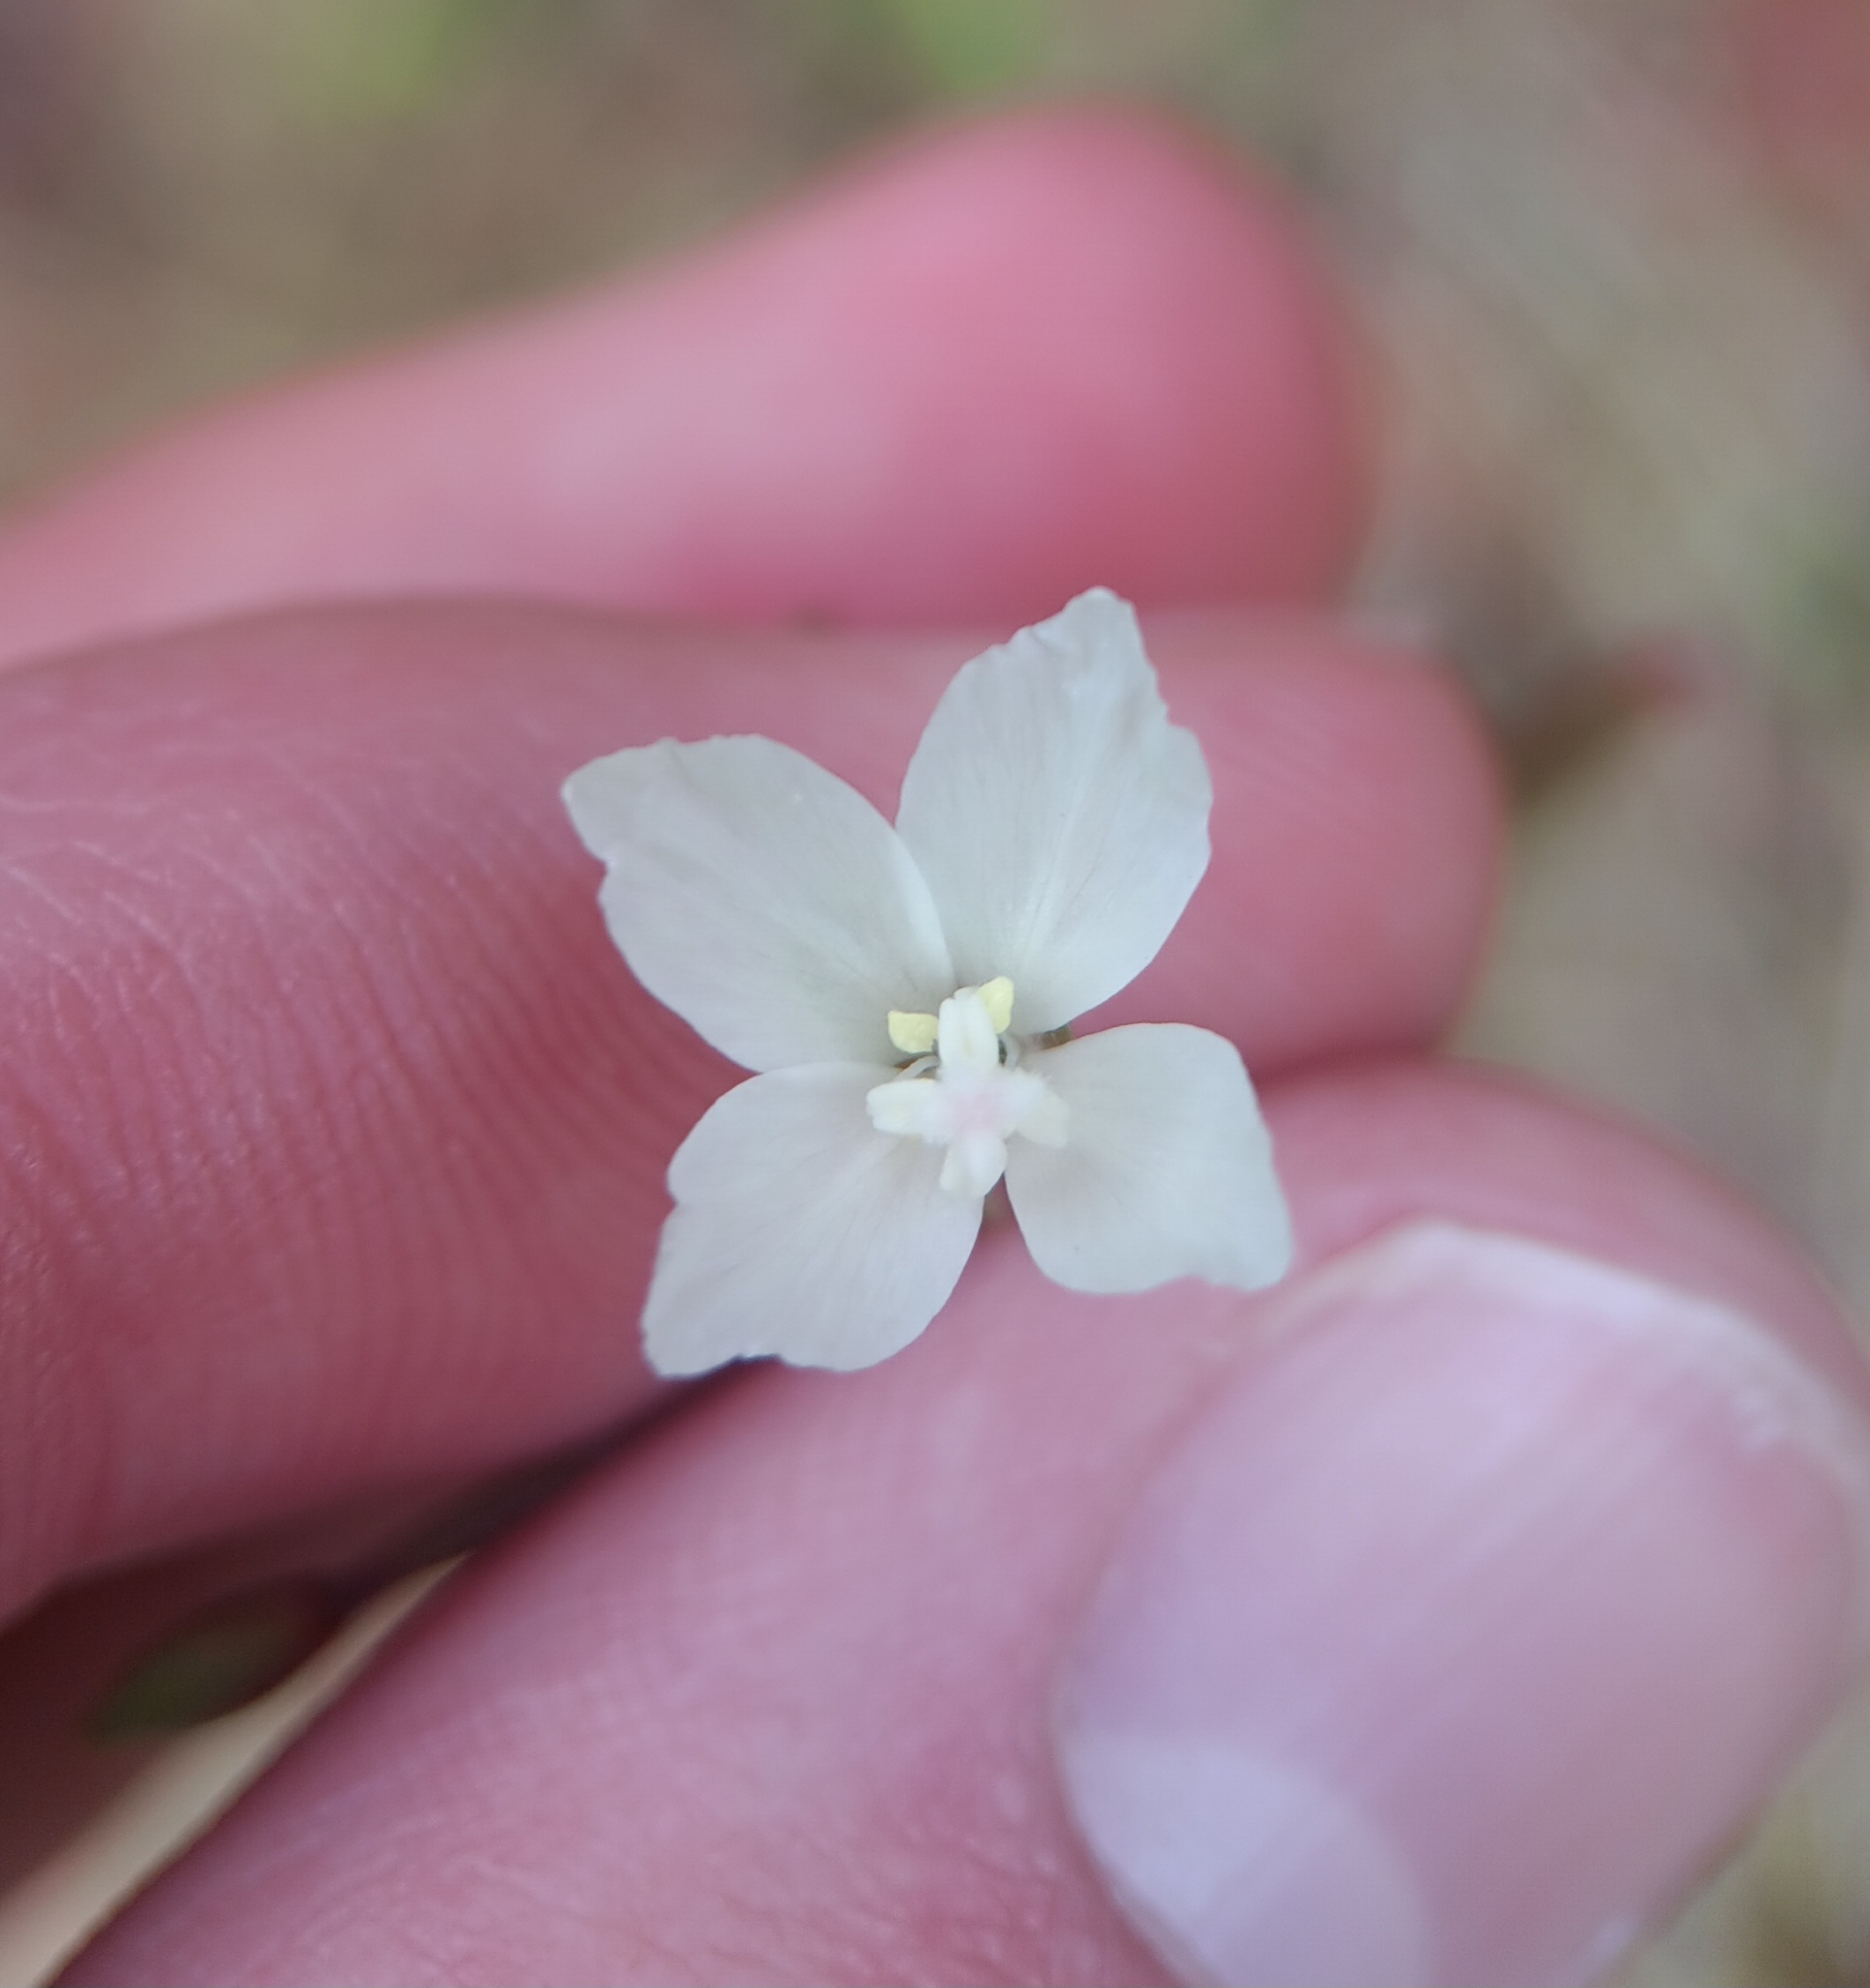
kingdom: Plantae
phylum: Tracheophyta
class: Magnoliopsida
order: Myrtales
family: Onagraceae
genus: Clarkia
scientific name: Clarkia epilobioides
